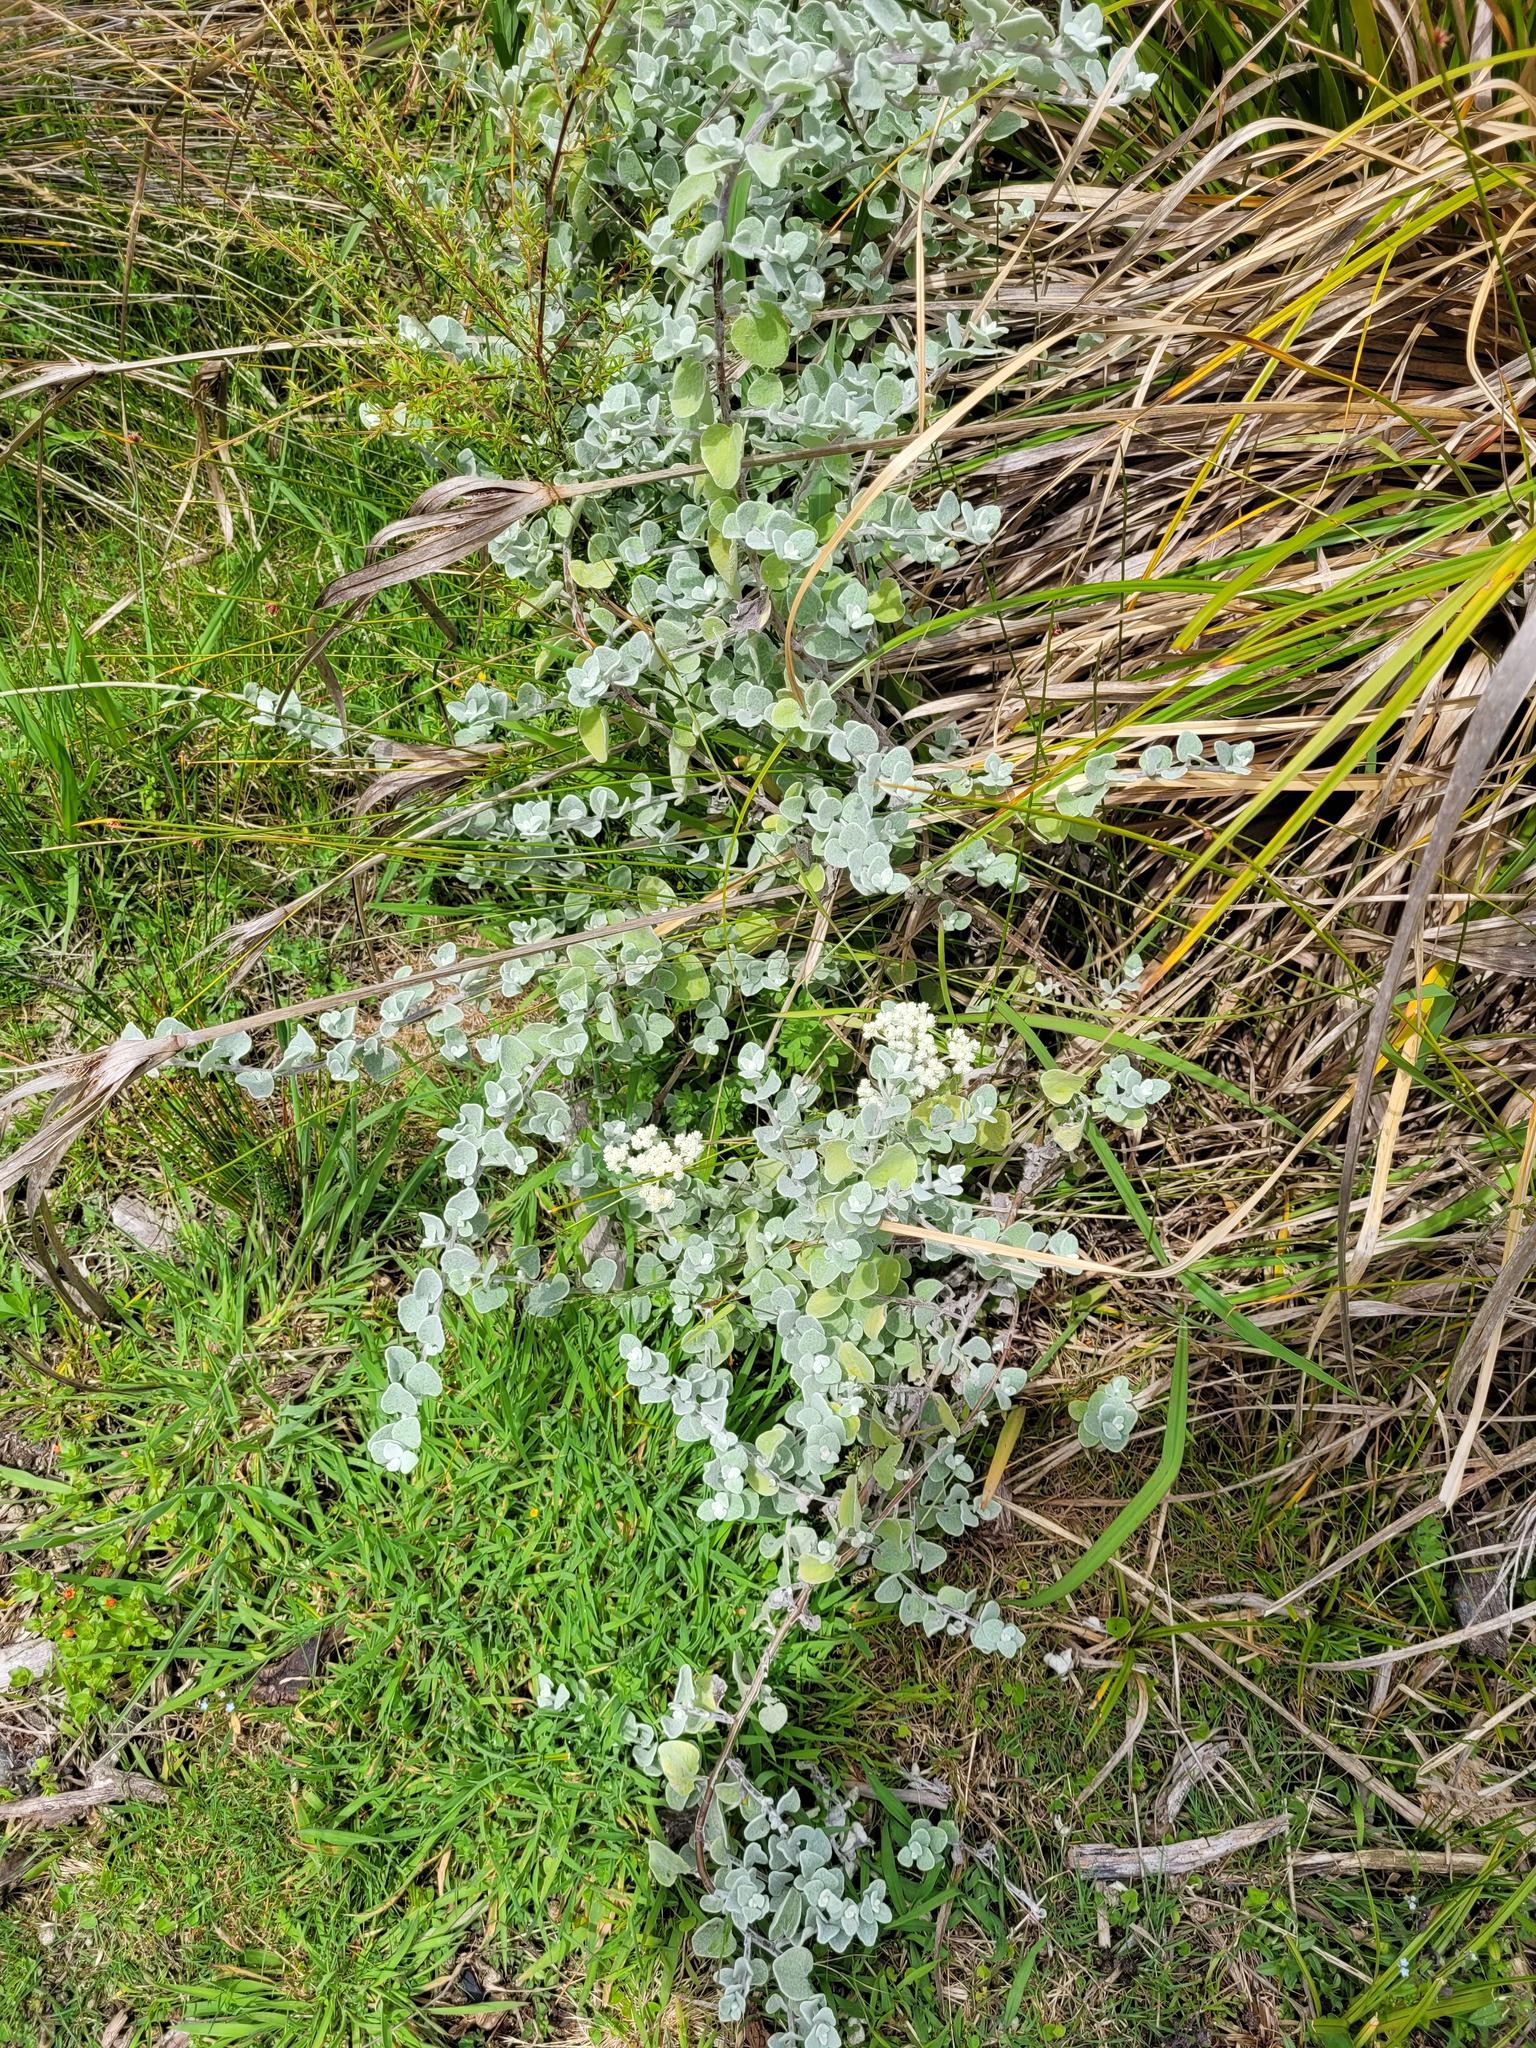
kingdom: Plantae
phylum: Tracheophyta
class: Magnoliopsida
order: Asterales
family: Asteraceae
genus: Helichrysum
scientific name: Helichrysum petiolare
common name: Licorice-plant
